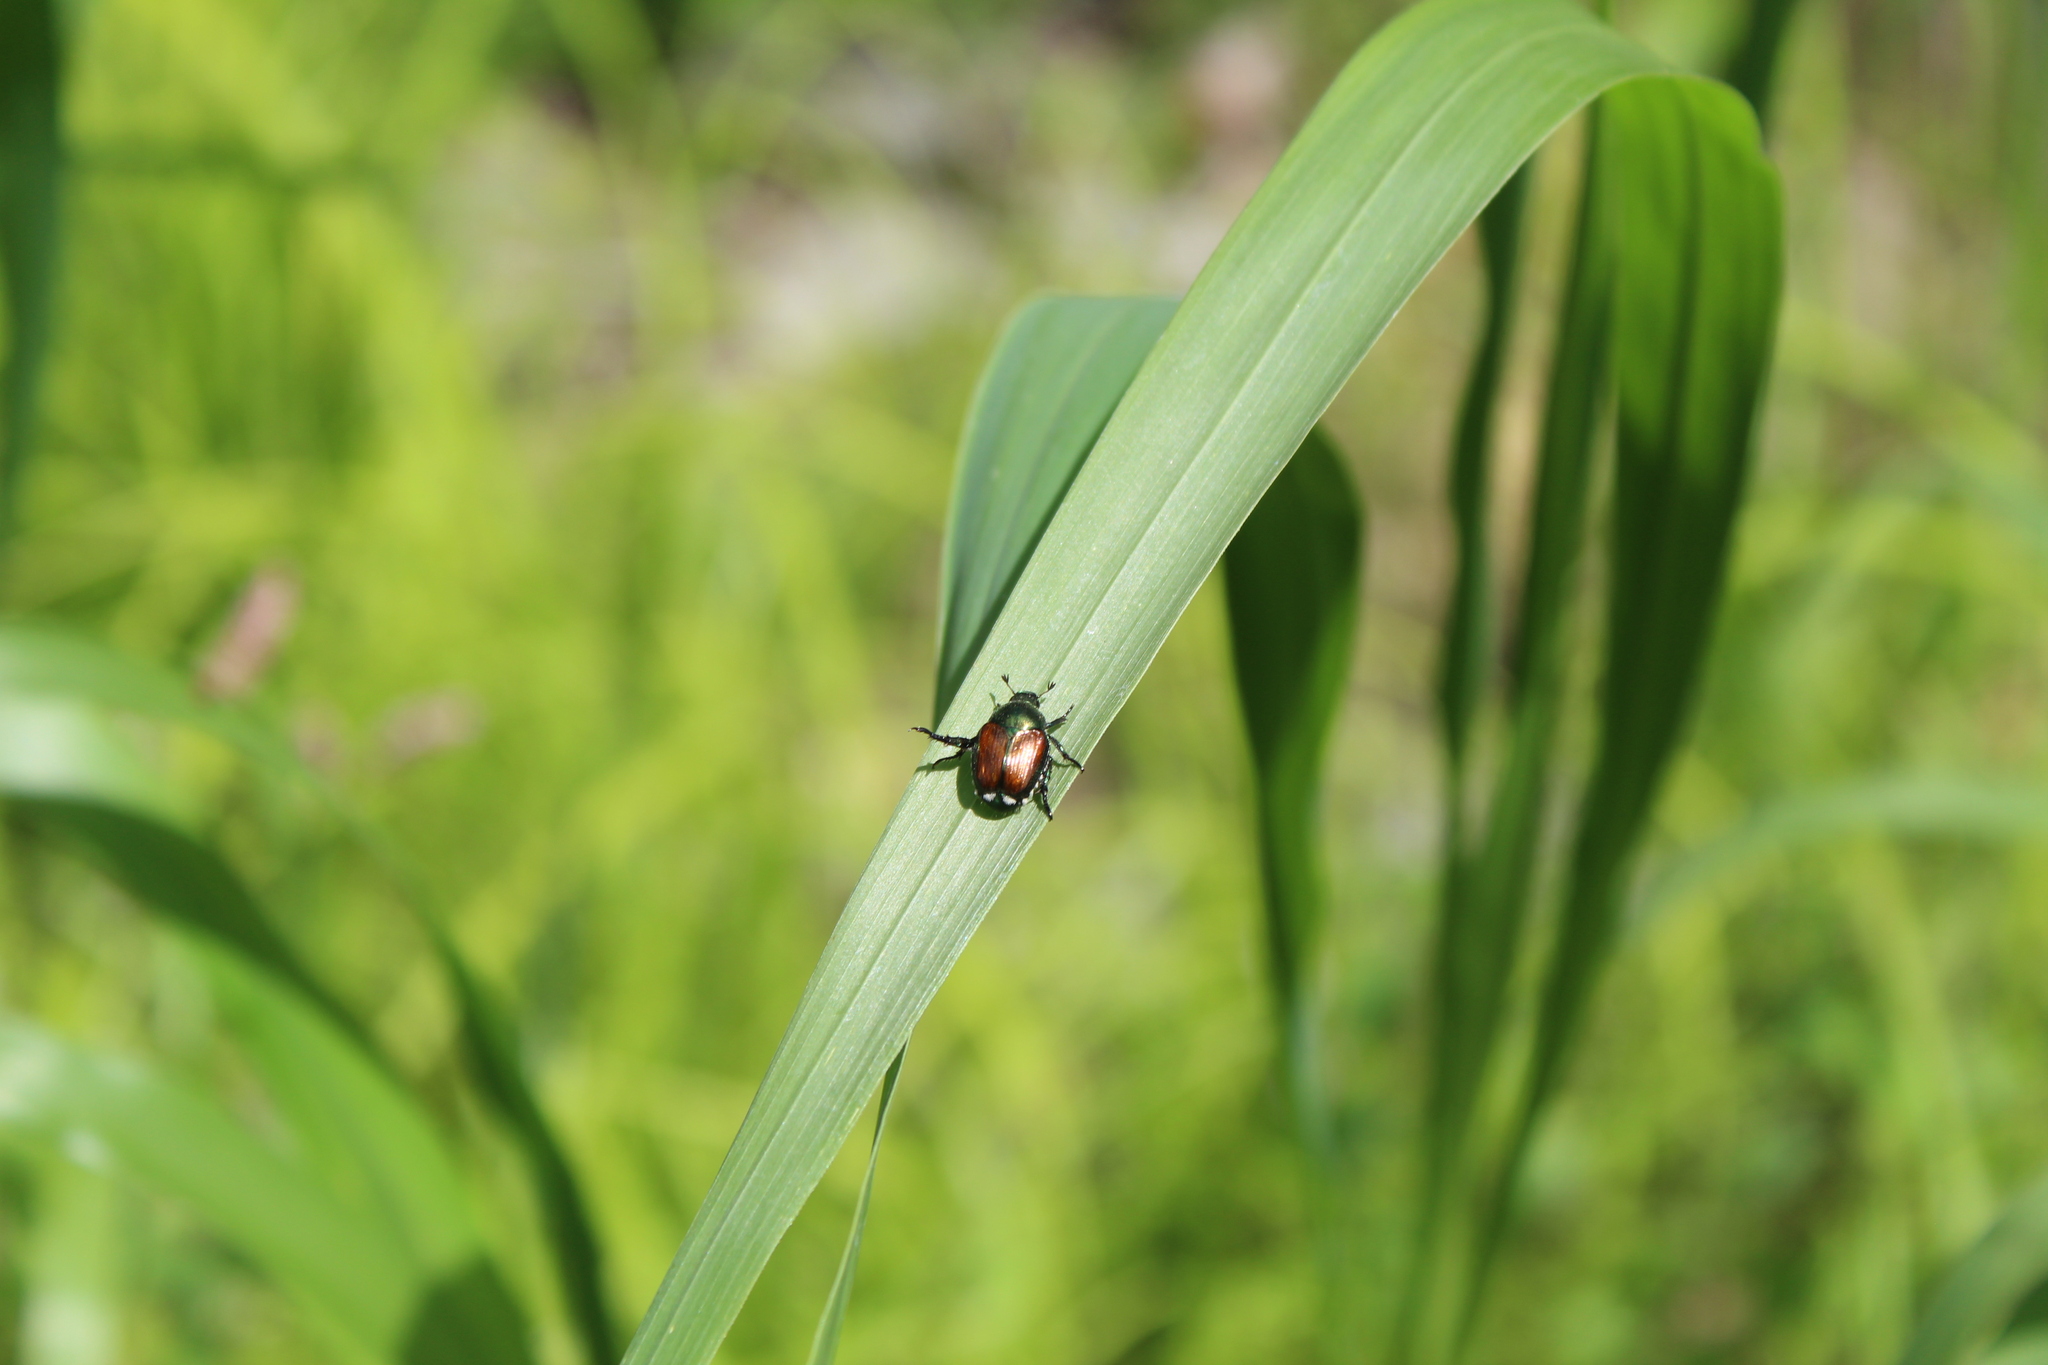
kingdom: Animalia
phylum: Arthropoda
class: Insecta
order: Coleoptera
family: Scarabaeidae
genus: Popillia
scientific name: Popillia japonica
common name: Japanese beetle
